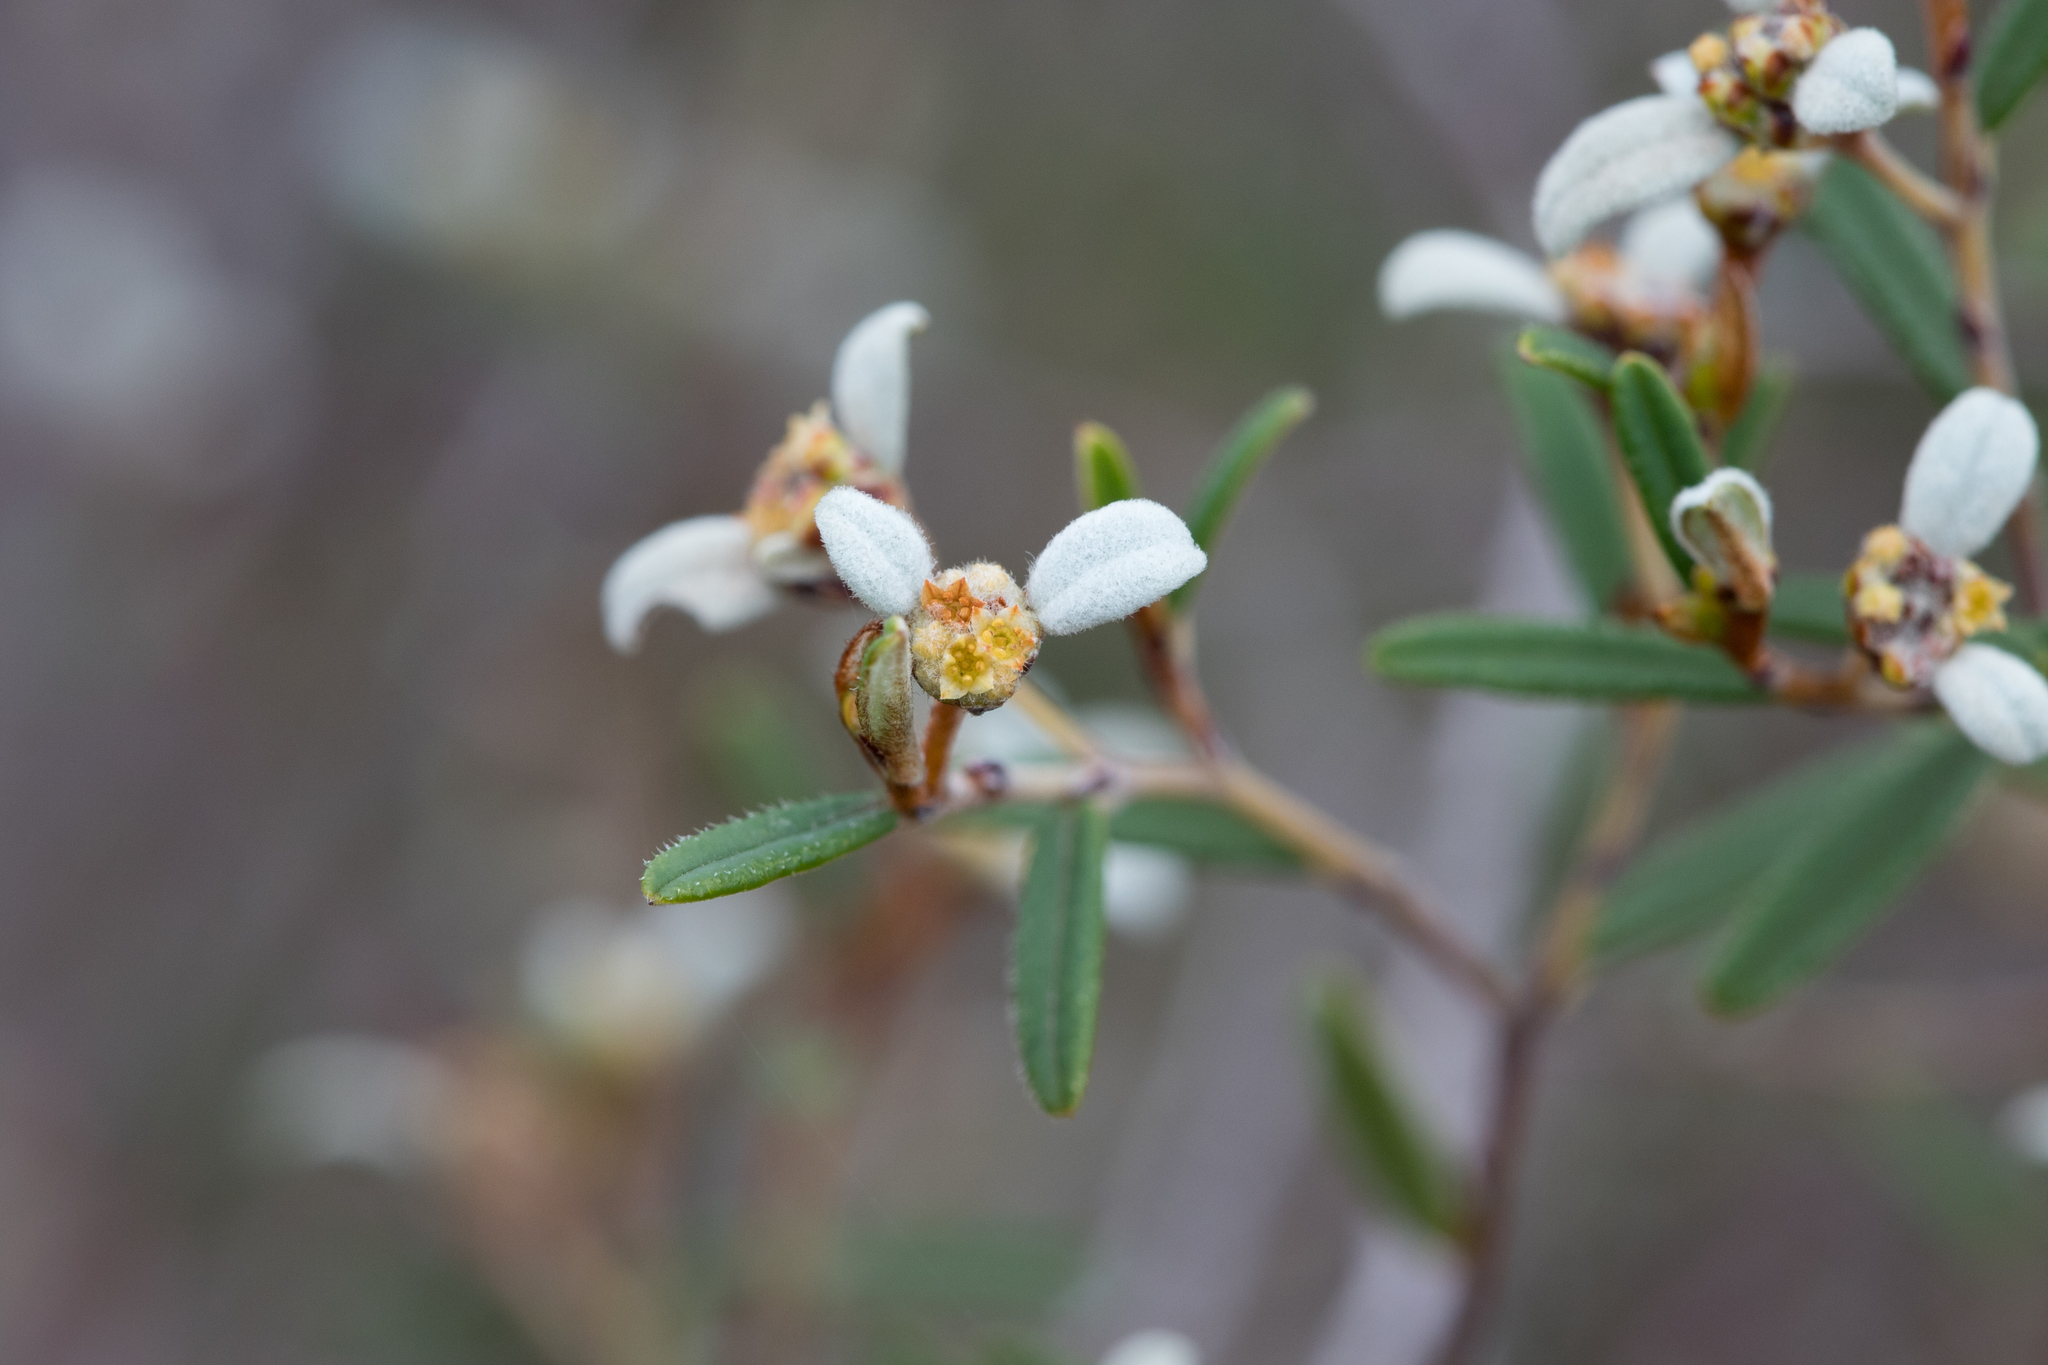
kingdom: Plantae
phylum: Tracheophyta
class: Magnoliopsida
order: Rosales
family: Rhamnaceae
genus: Spyridium
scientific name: Spyridium vexilliferum
